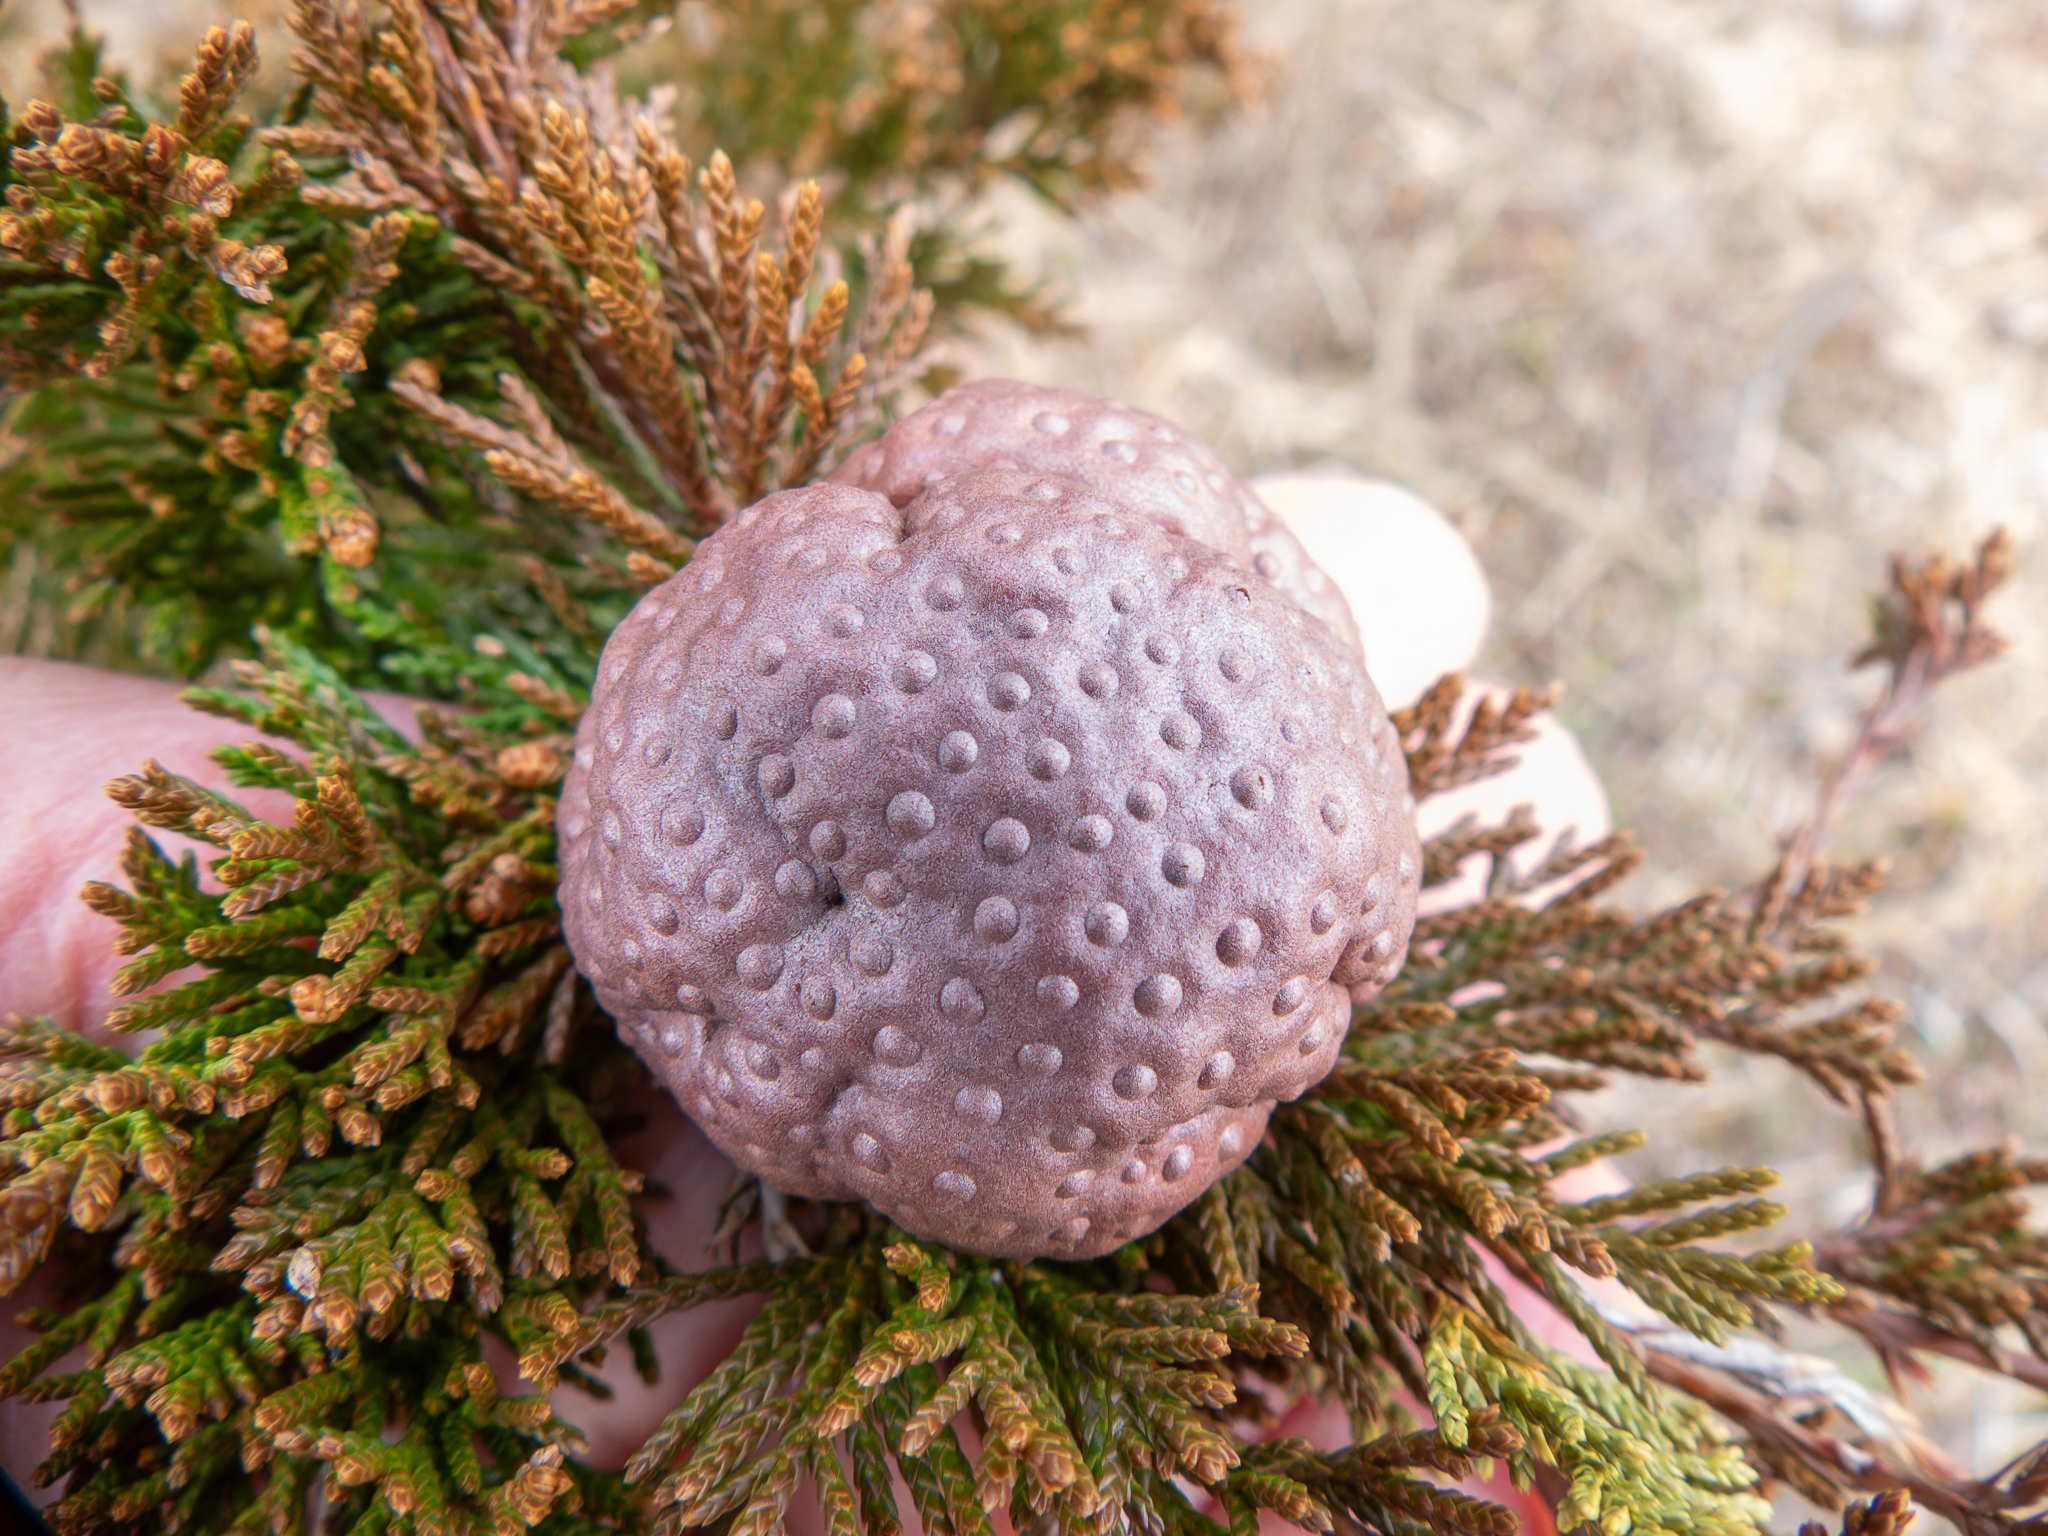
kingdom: Fungi
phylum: Basidiomycota
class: Pucciniomycetes
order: Pucciniales
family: Gymnosporangiaceae
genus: Gymnosporangium
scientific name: Gymnosporangium juniperi-virginianae
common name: Juniper-apple rust
